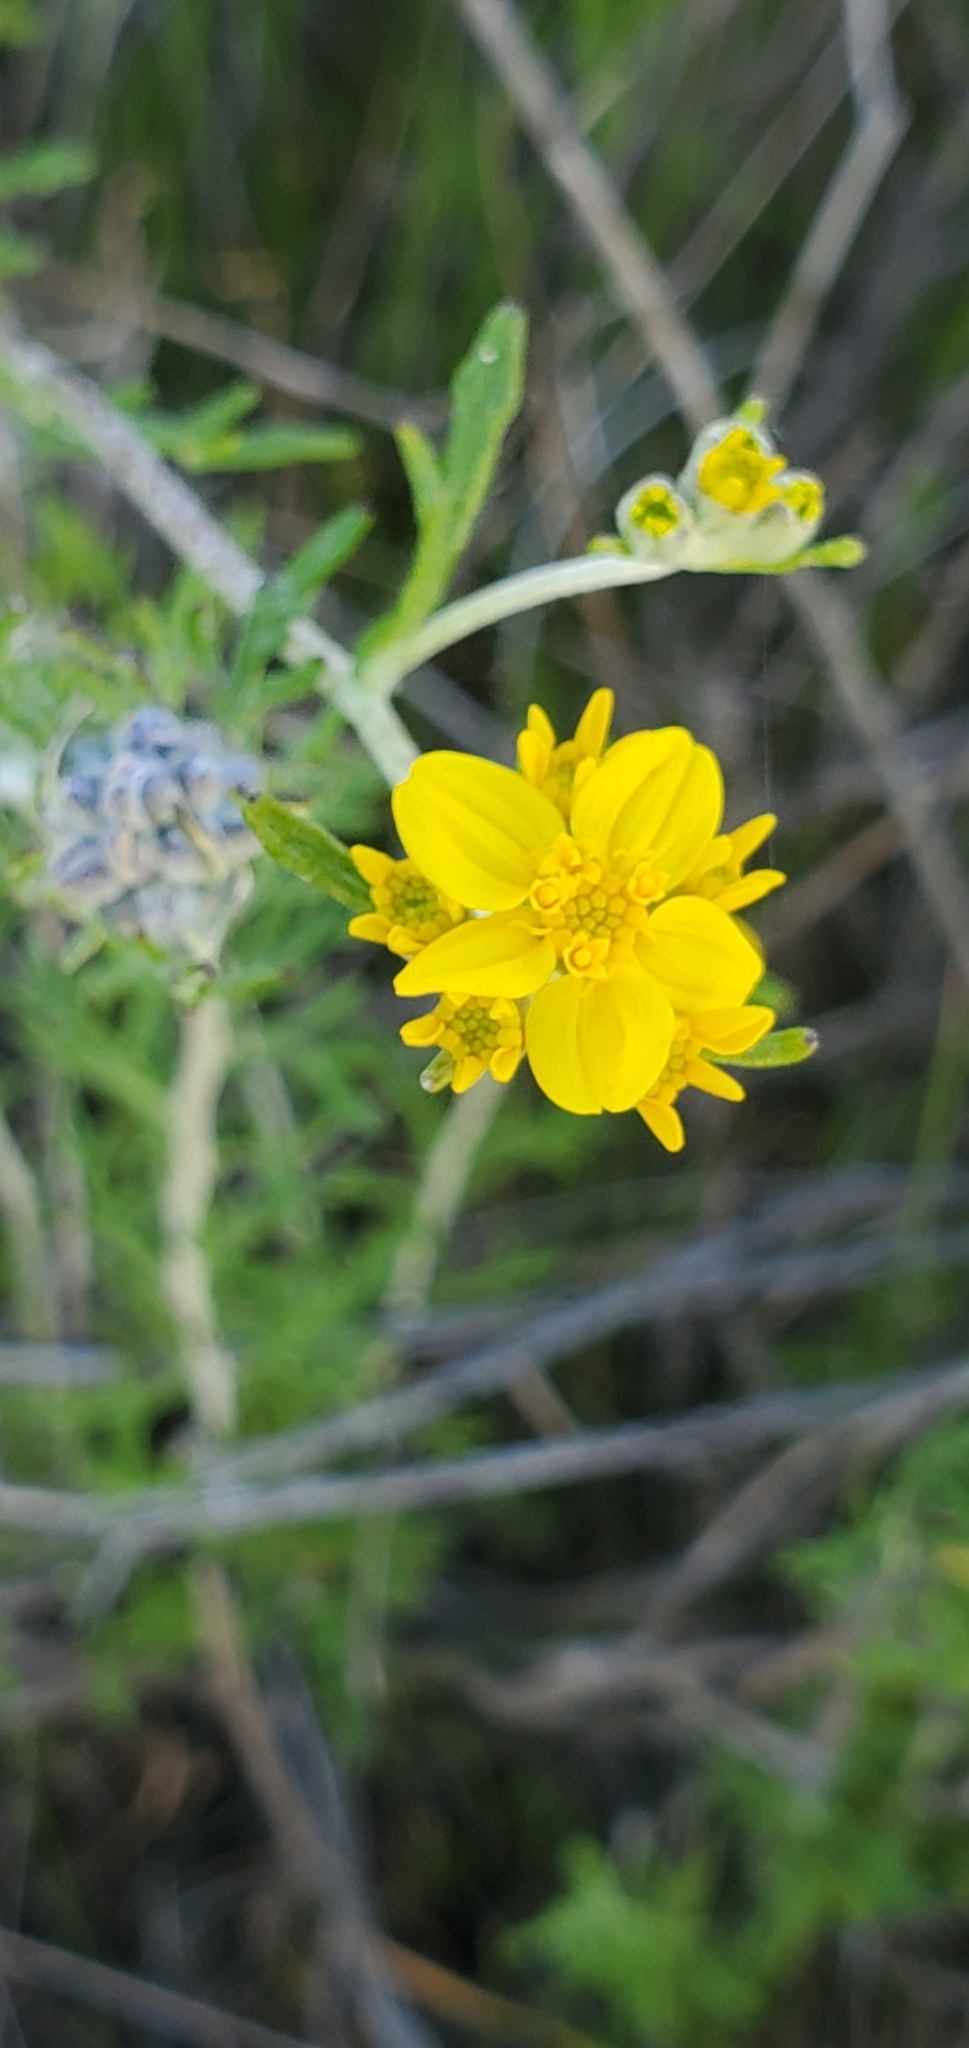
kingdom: Plantae
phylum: Tracheophyta
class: Magnoliopsida
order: Asterales
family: Asteraceae
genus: Eriophyllum
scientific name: Eriophyllum confertiflorum
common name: Golden-yarrow
